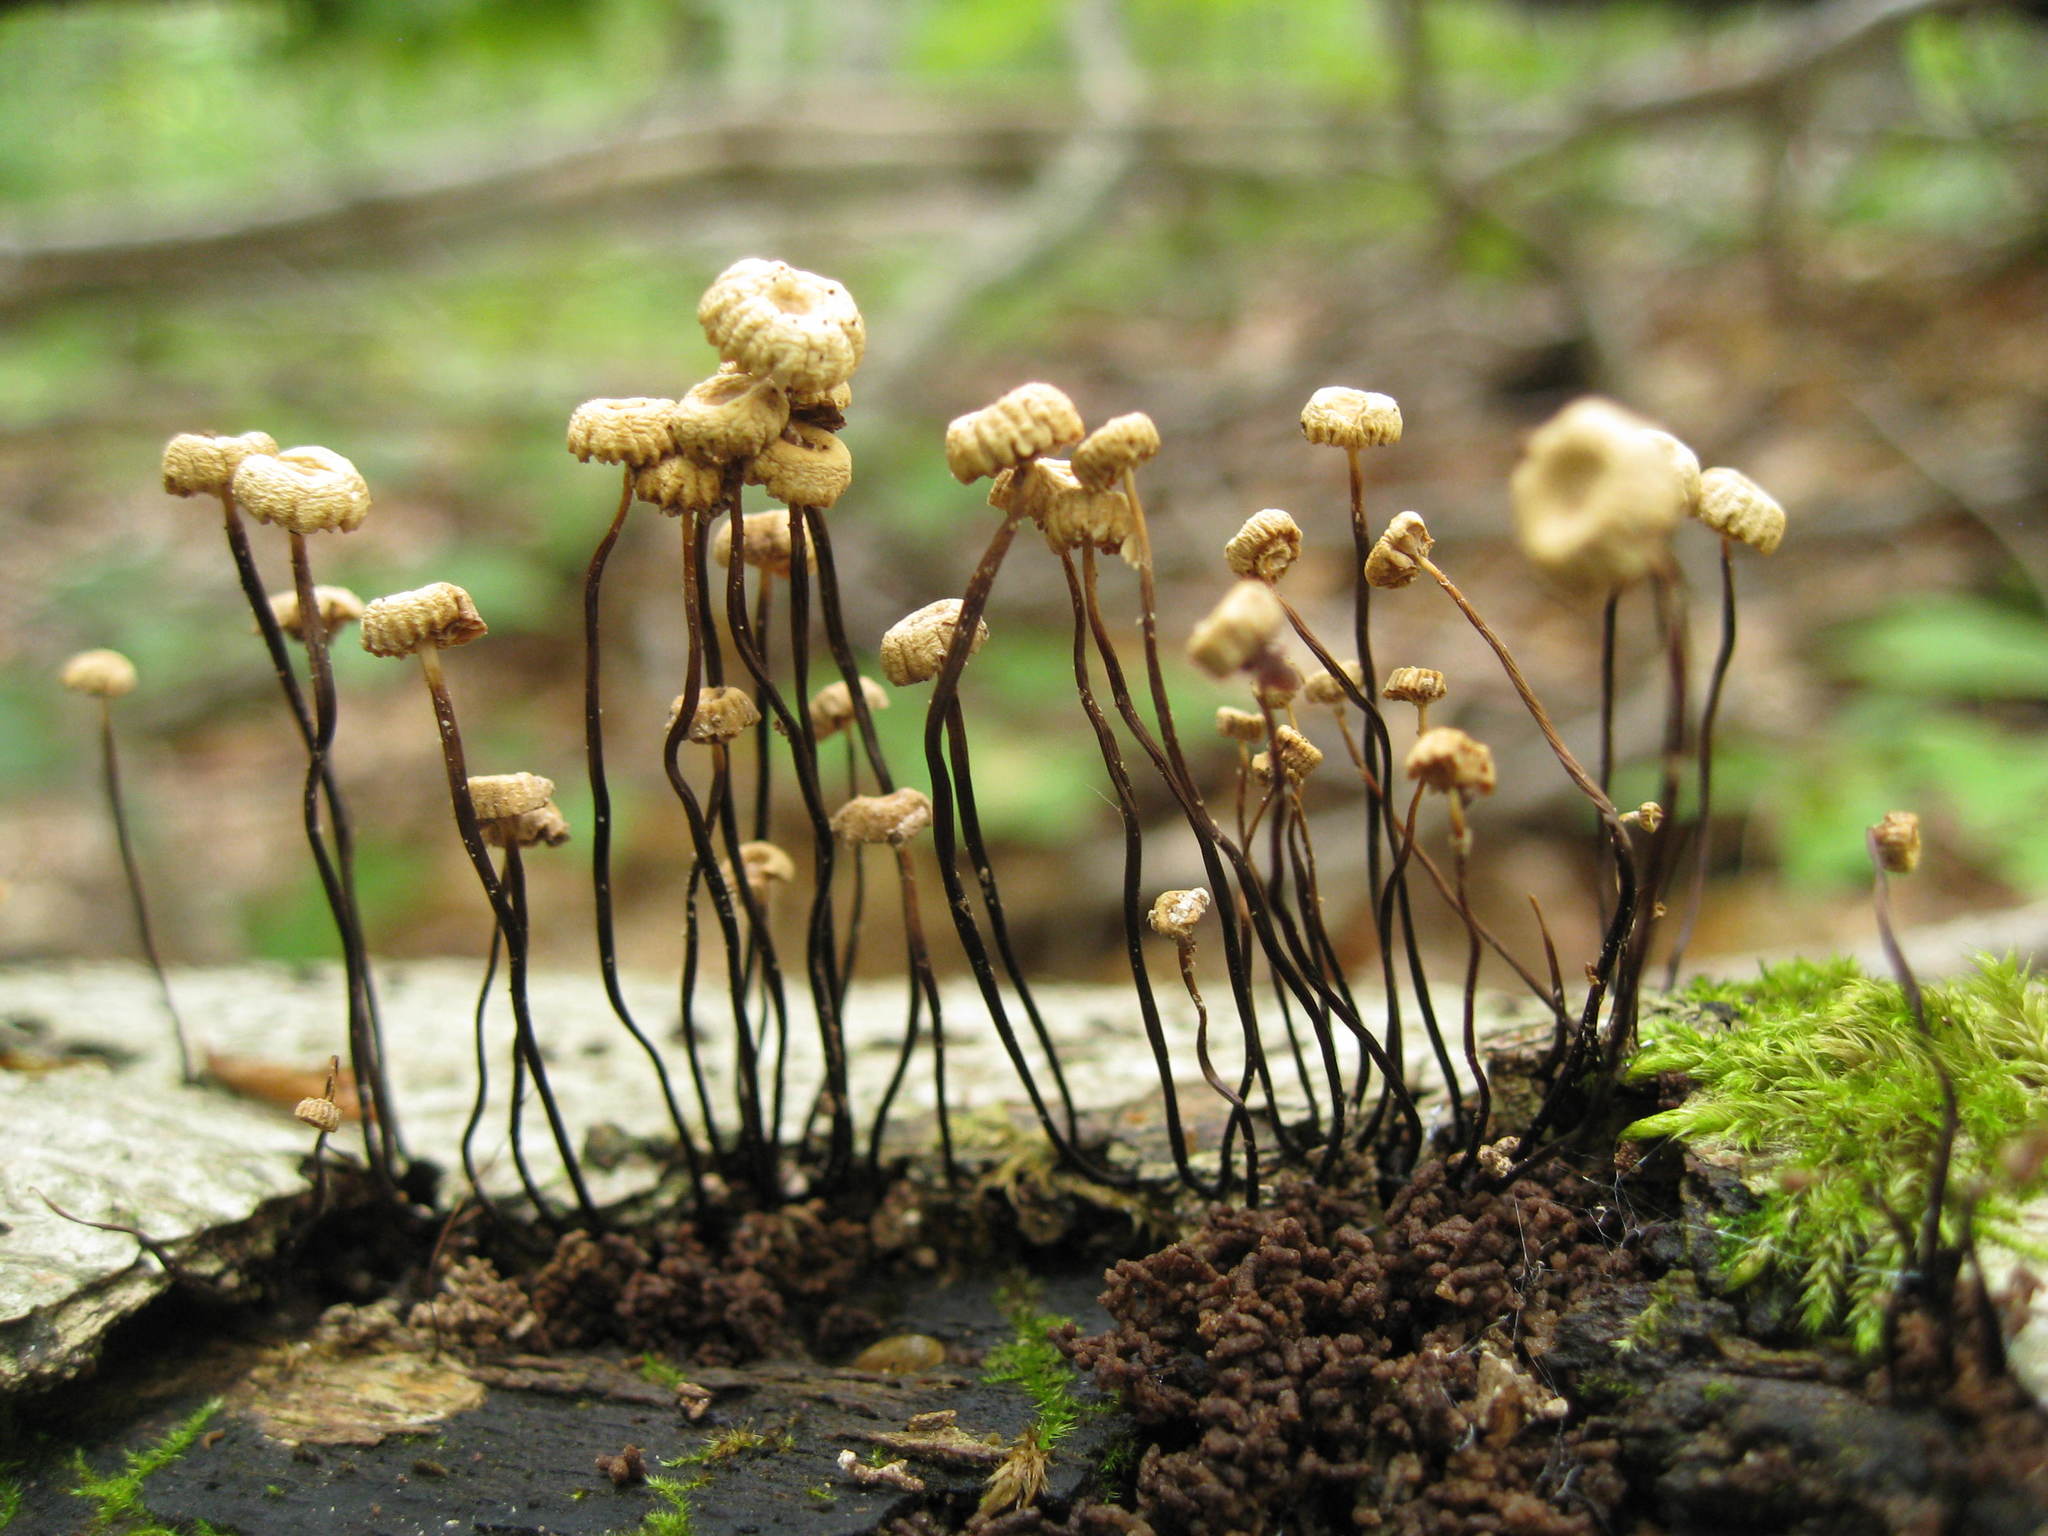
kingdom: Fungi
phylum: Basidiomycota
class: Agaricomycetes
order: Agaricales
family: Marasmiaceae
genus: Marasmius
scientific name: Marasmius rotula
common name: Collared parachute
